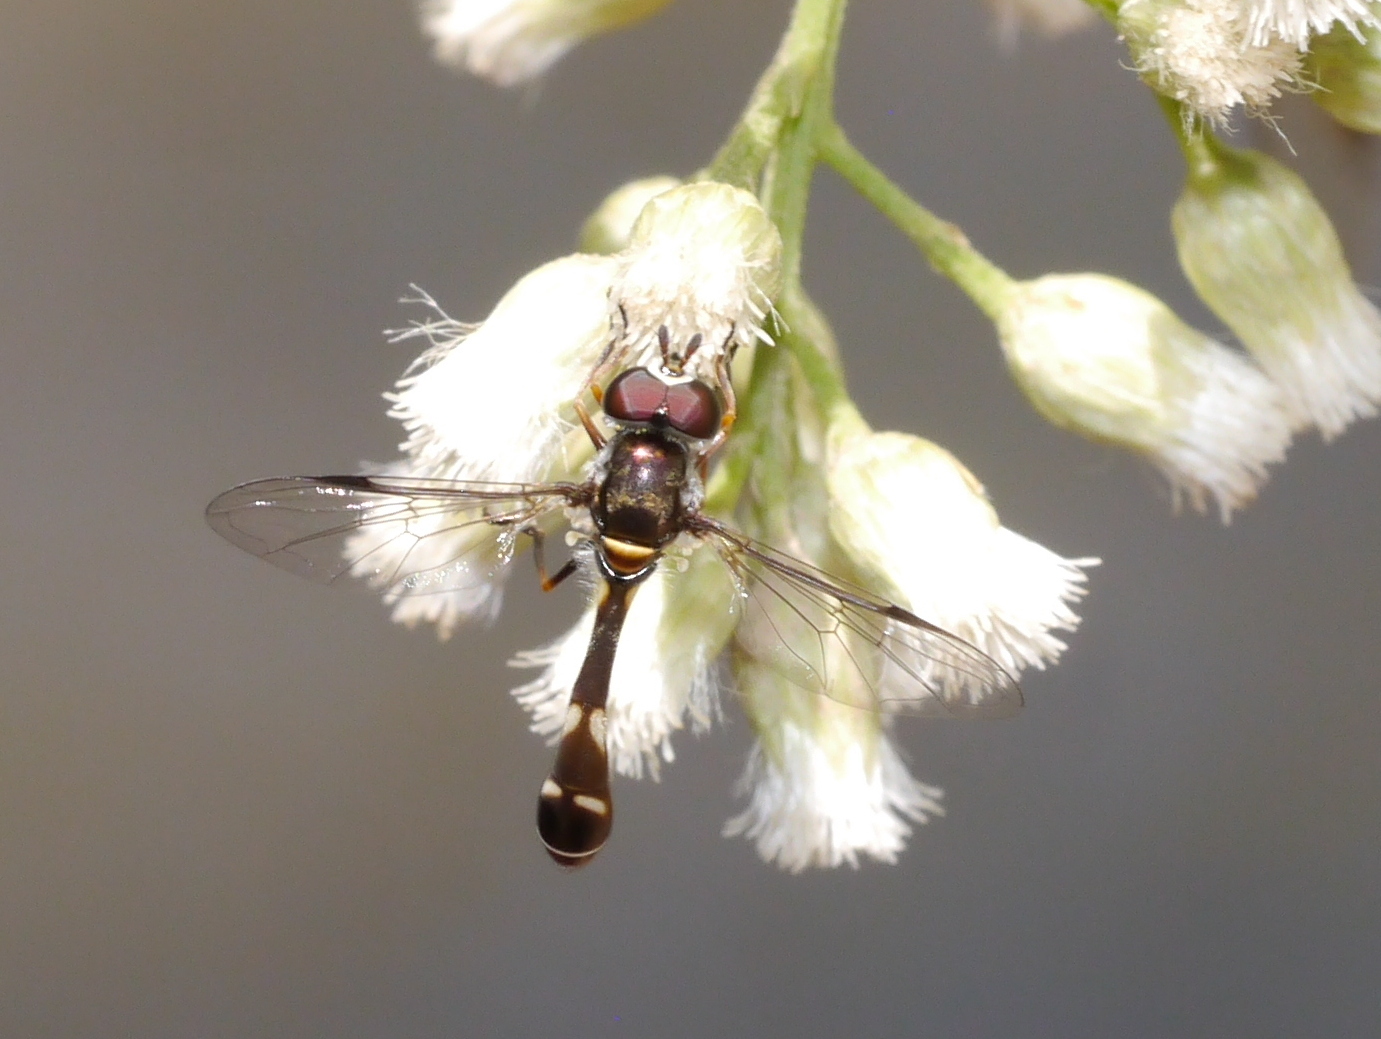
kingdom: Animalia
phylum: Arthropoda
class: Insecta
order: Diptera
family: Syrphidae
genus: Dioprosopa
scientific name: Dioprosopa clavatus
